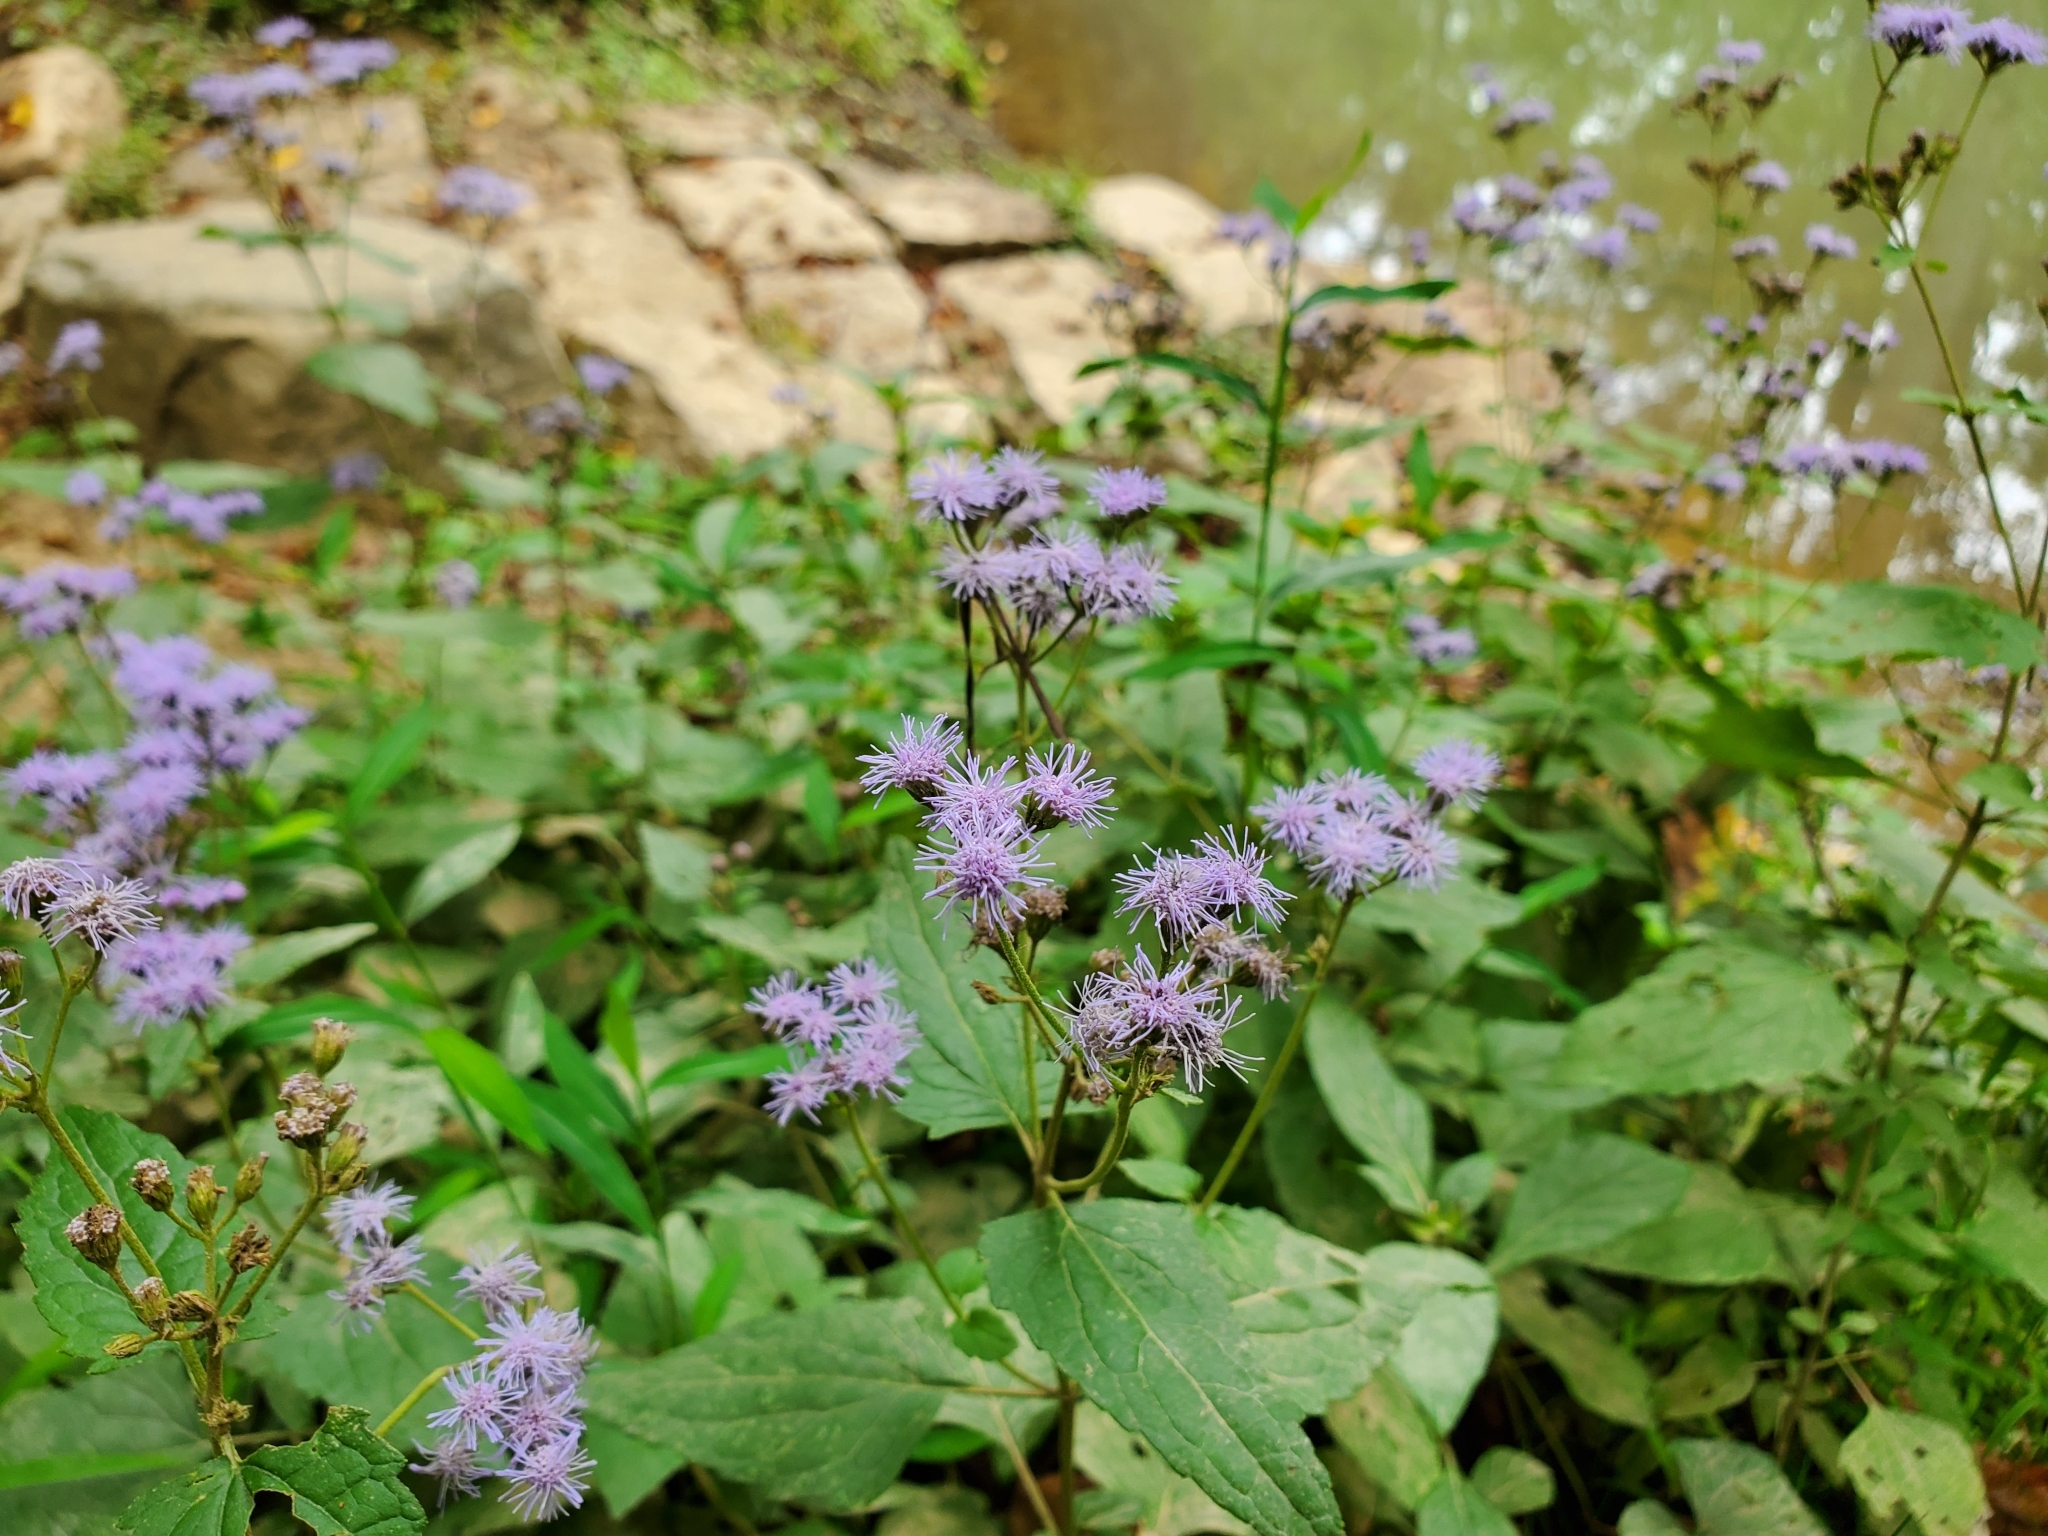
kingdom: Plantae
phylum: Tracheophyta
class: Magnoliopsida
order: Asterales
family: Asteraceae
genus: Conoclinium
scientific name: Conoclinium coelestinum
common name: Blue mistflower
